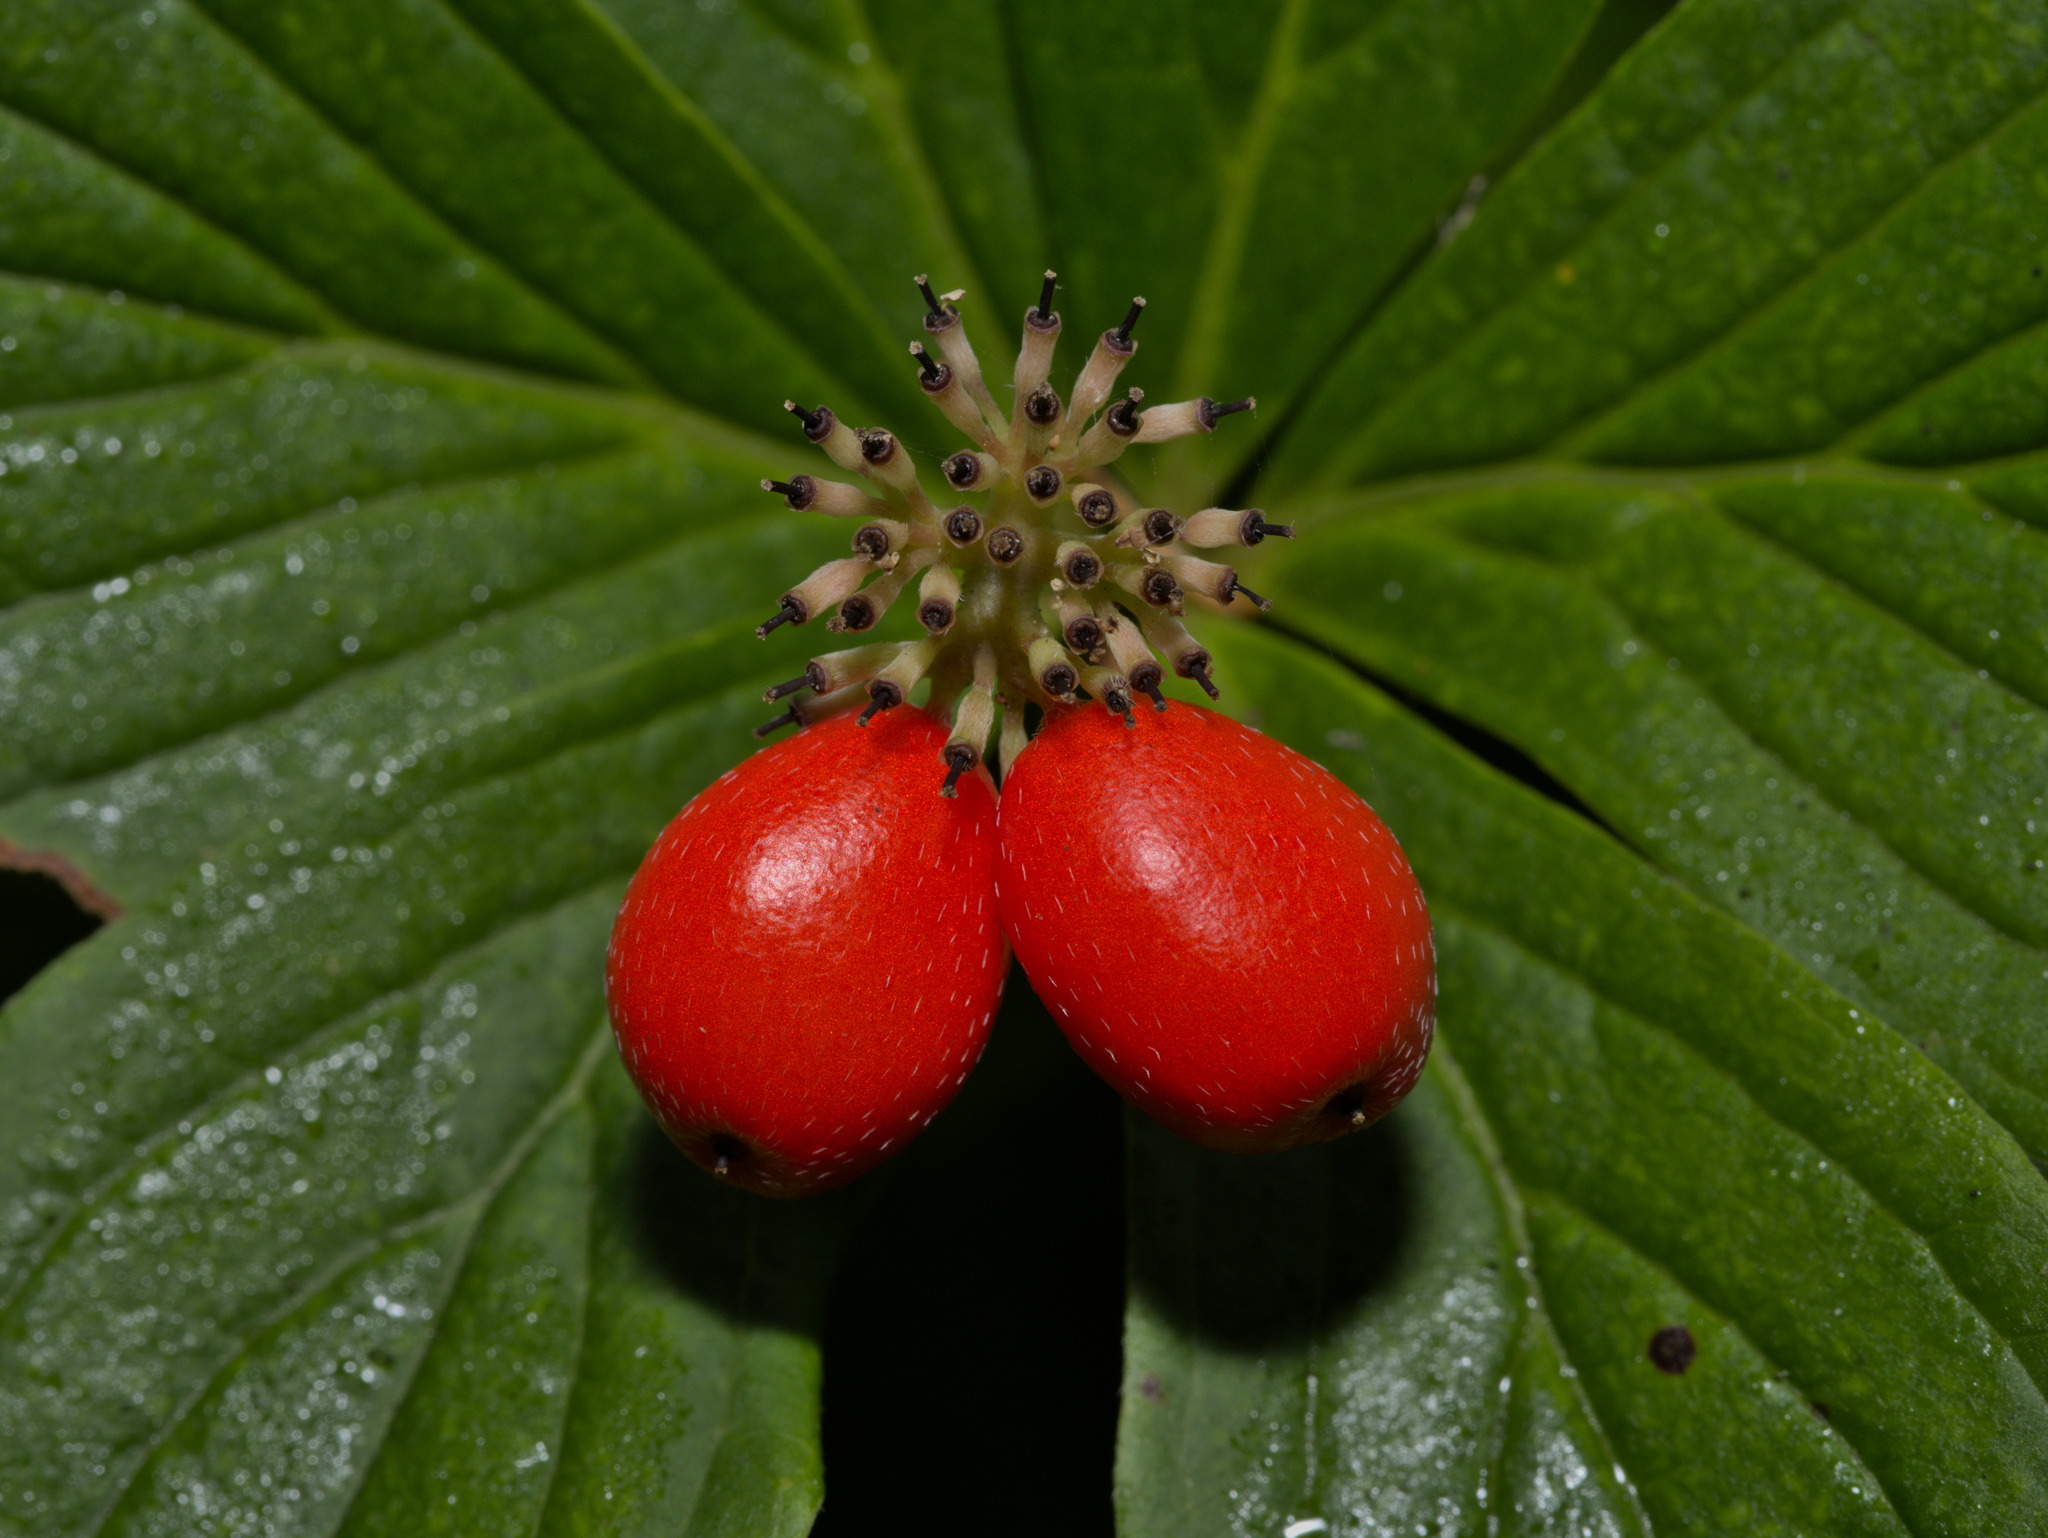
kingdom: Plantae
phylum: Tracheophyta
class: Magnoliopsida
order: Cornales
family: Cornaceae
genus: Cornus
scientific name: Cornus unalaschkensis
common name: Alaska bunchberry
